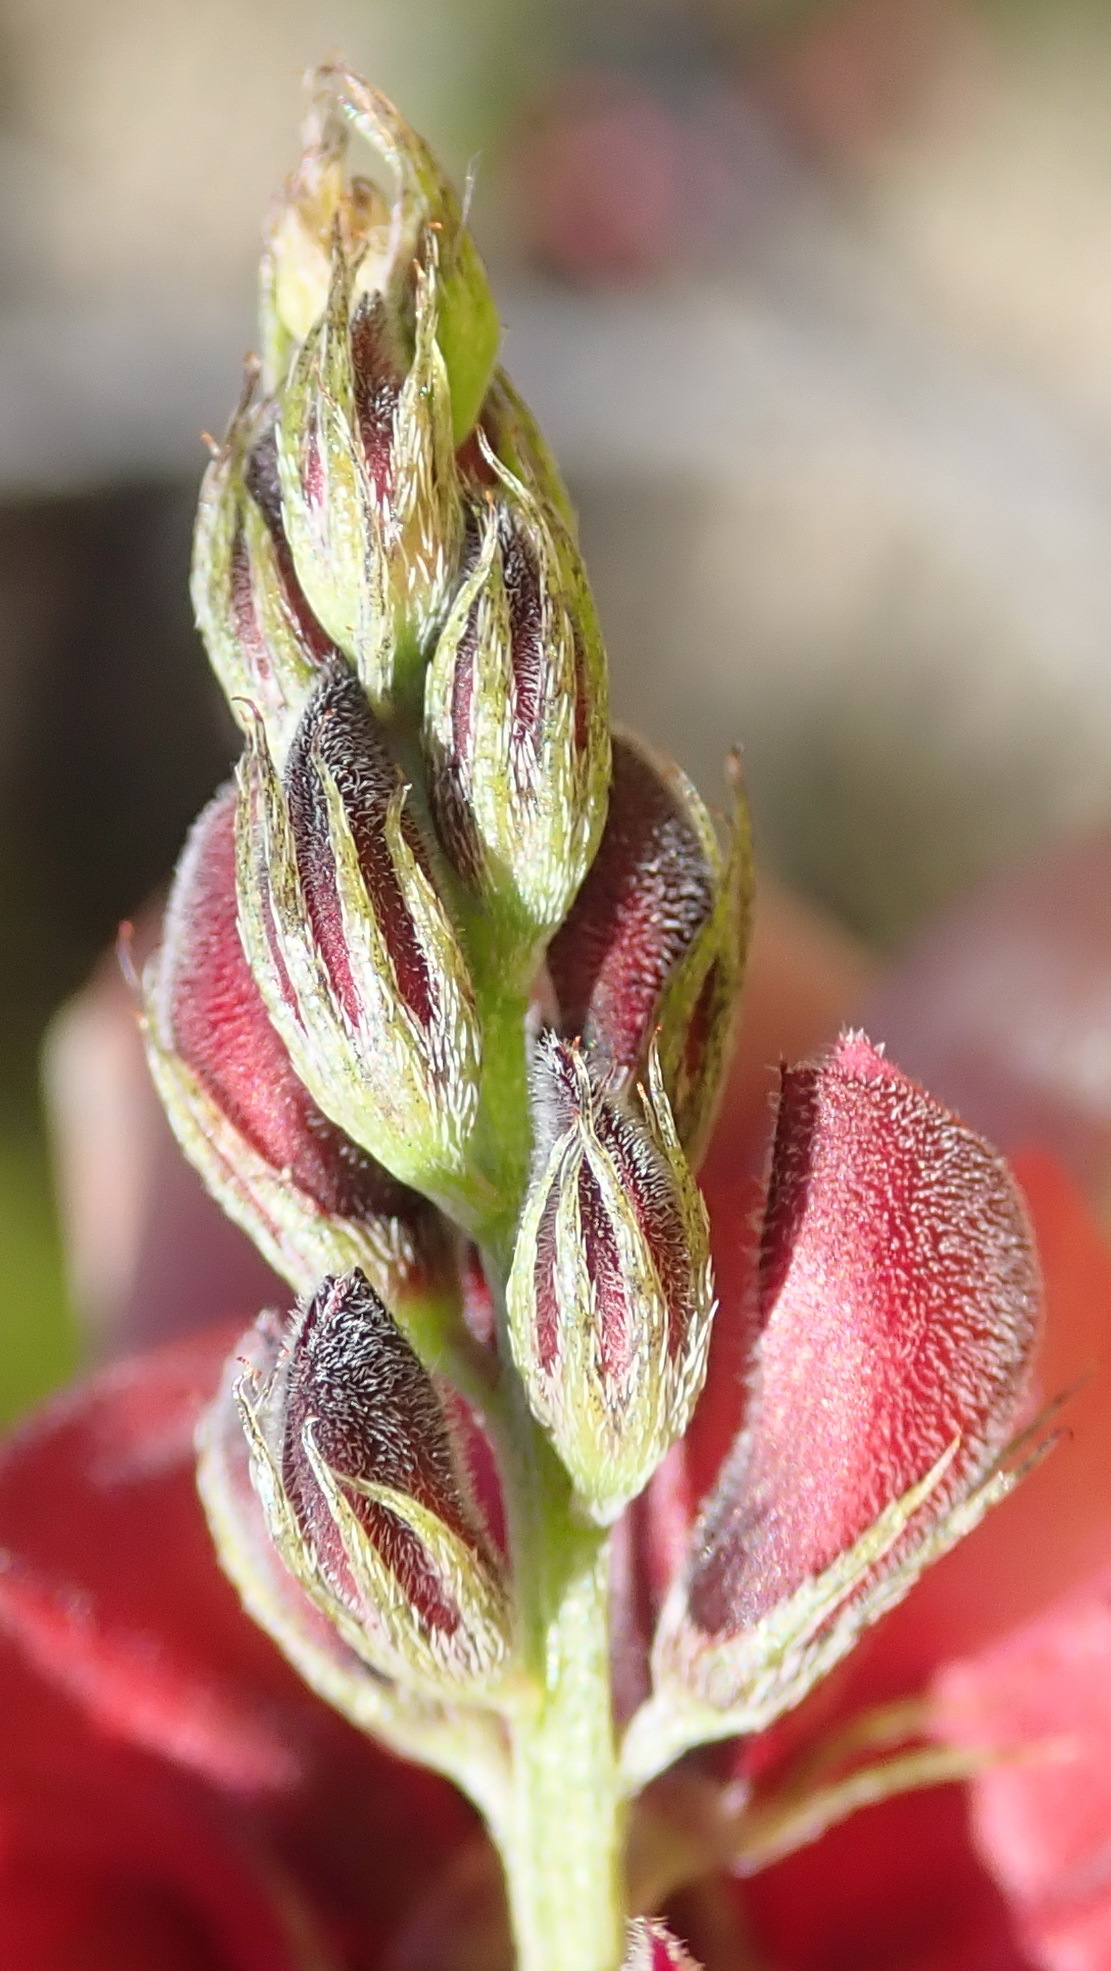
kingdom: Plantae
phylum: Tracheophyta
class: Magnoliopsida
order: Fabales
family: Fabaceae
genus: Indigofera
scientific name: Indigofera heterophylla
